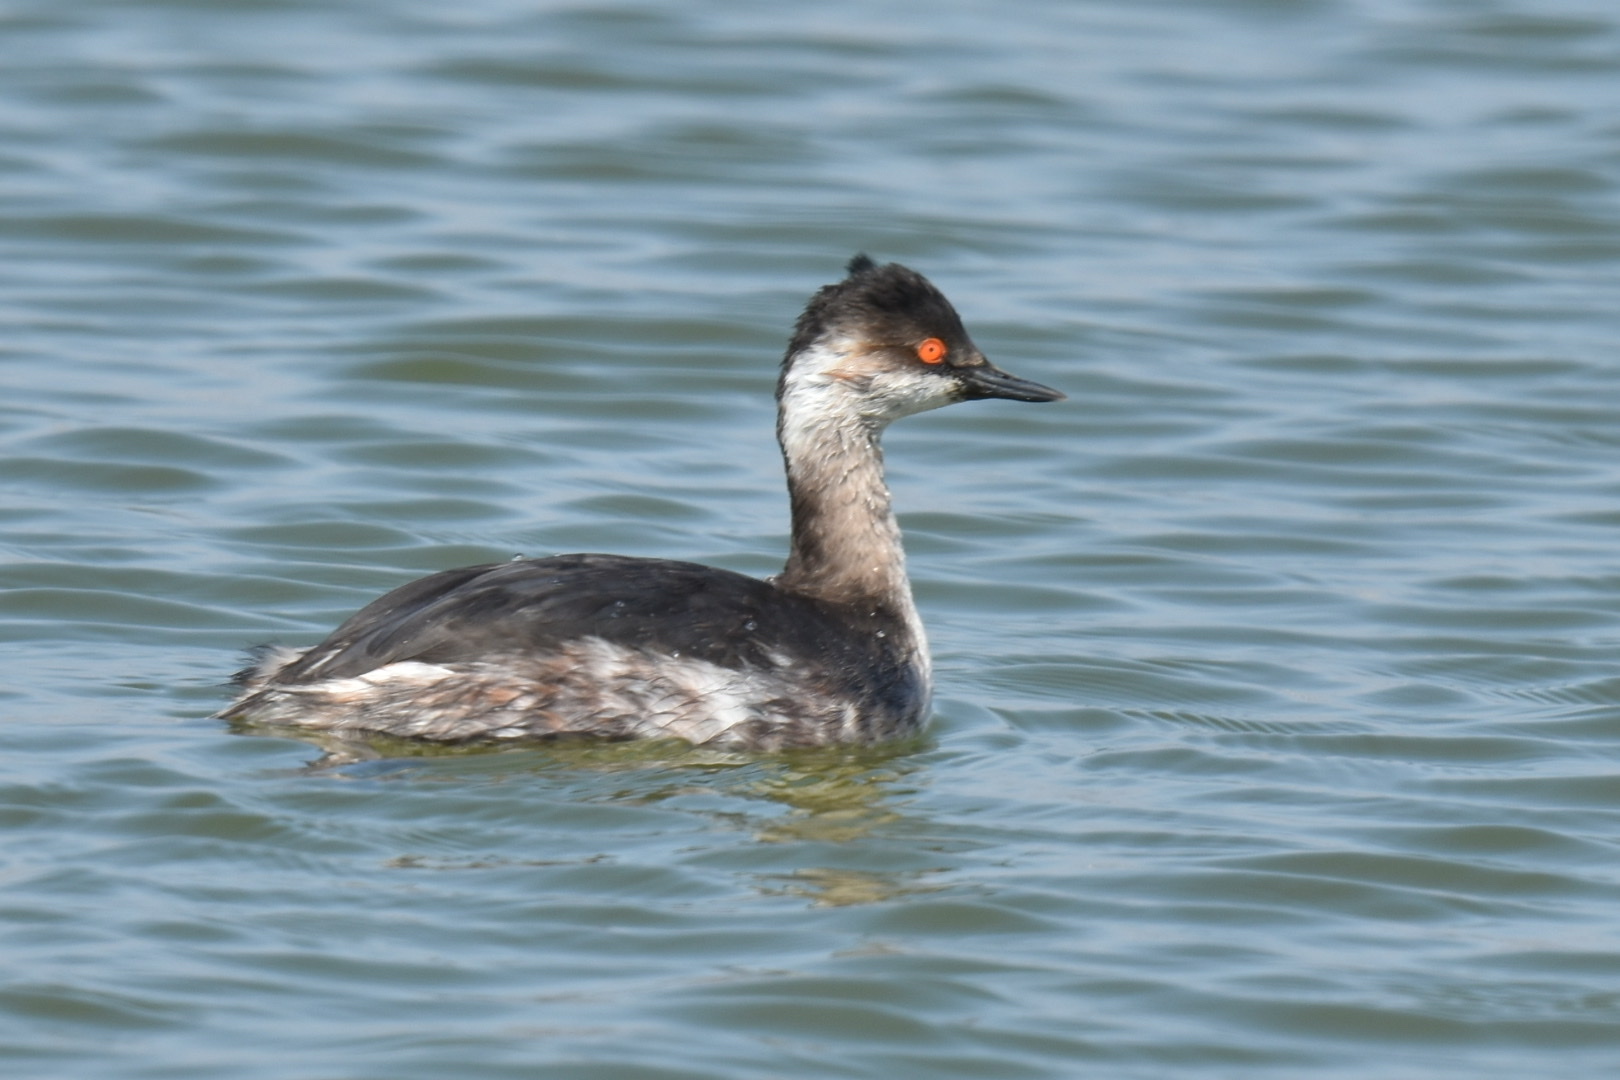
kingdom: Animalia
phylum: Chordata
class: Aves
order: Podicipediformes
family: Podicipedidae
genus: Podiceps
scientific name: Podiceps nigricollis
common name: Black-necked grebe
